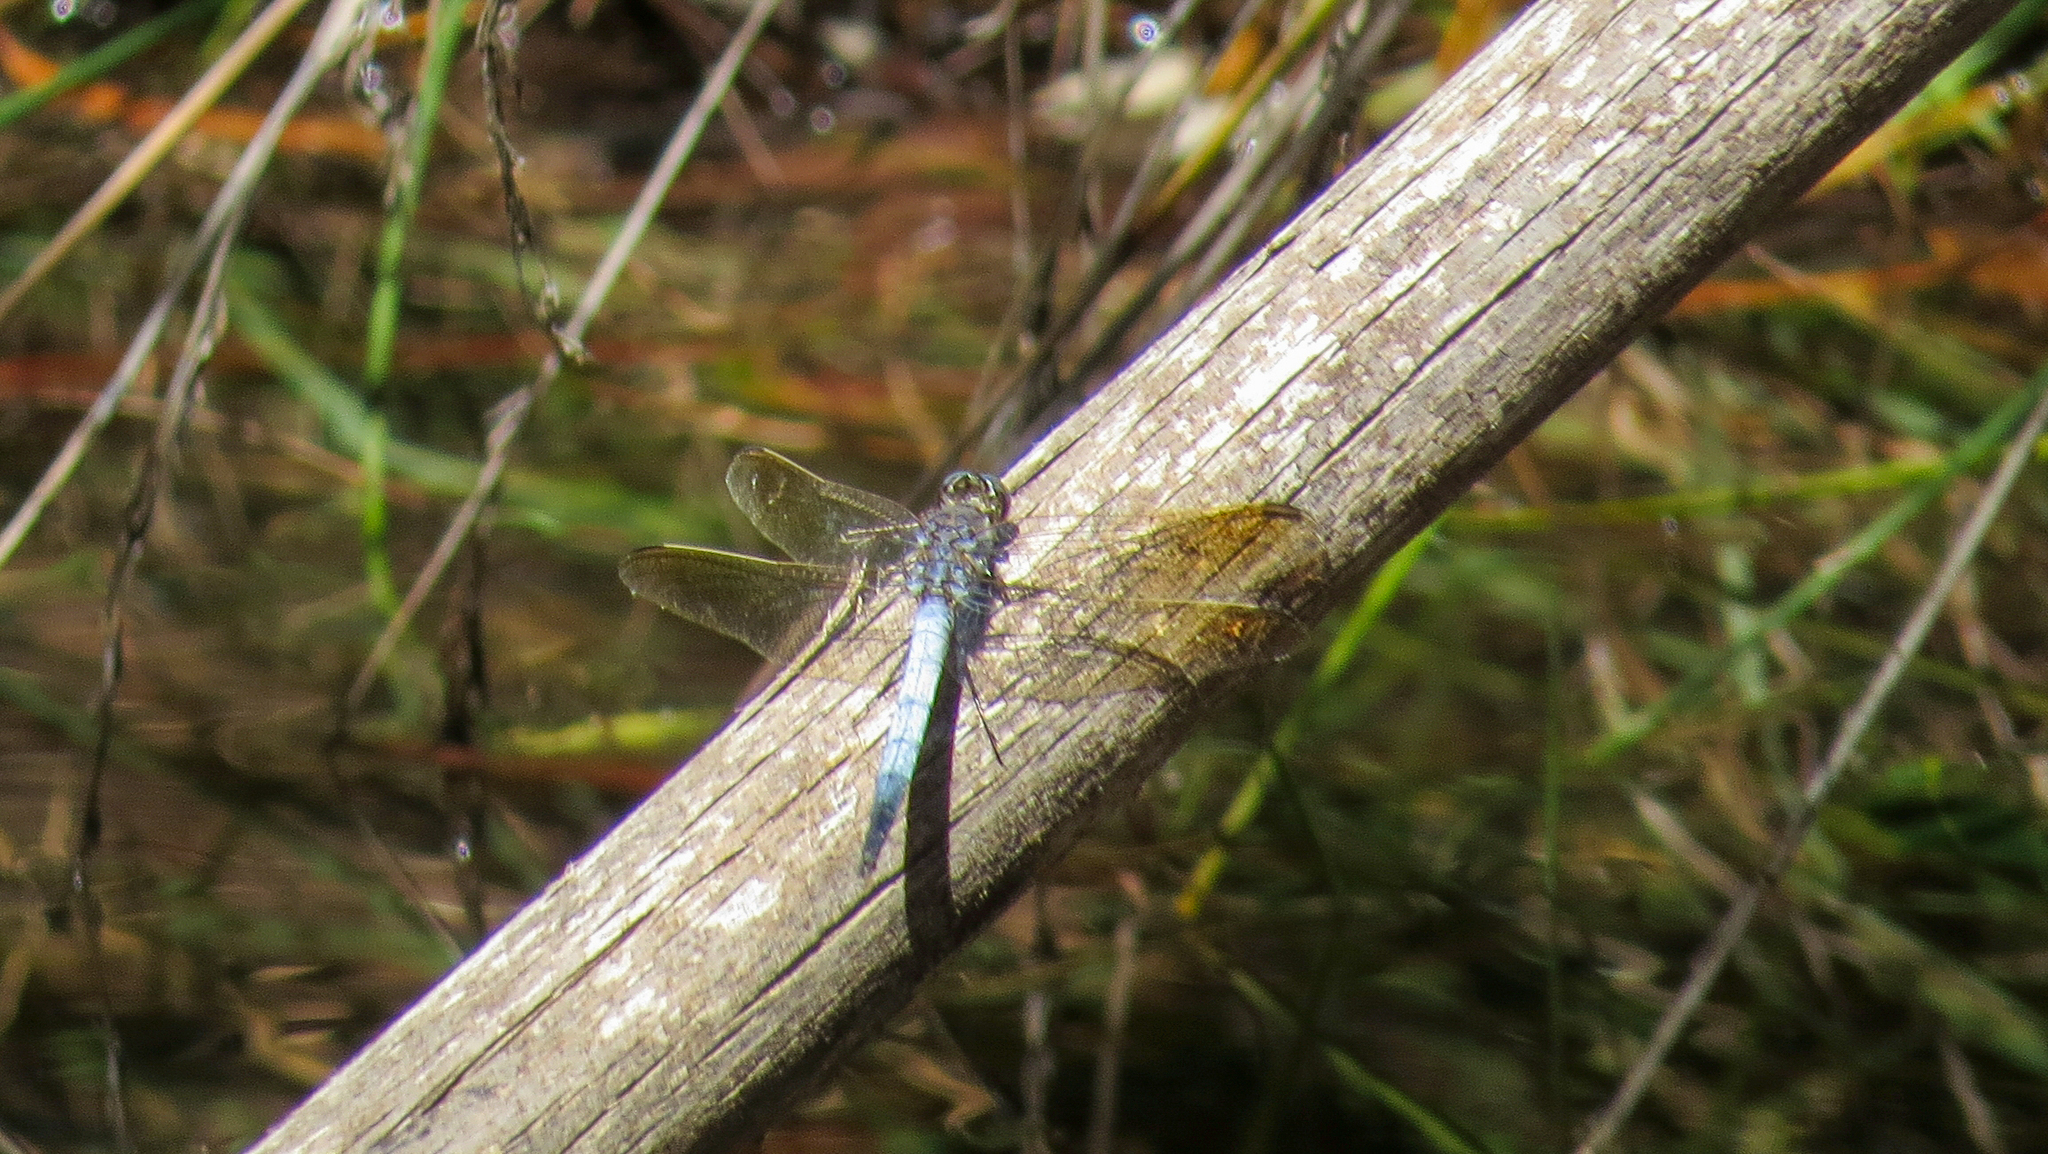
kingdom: Animalia
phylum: Arthropoda
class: Insecta
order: Odonata
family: Libellulidae
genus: Orthetrum
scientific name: Orthetrum caledonicum
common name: Blue skimmer
